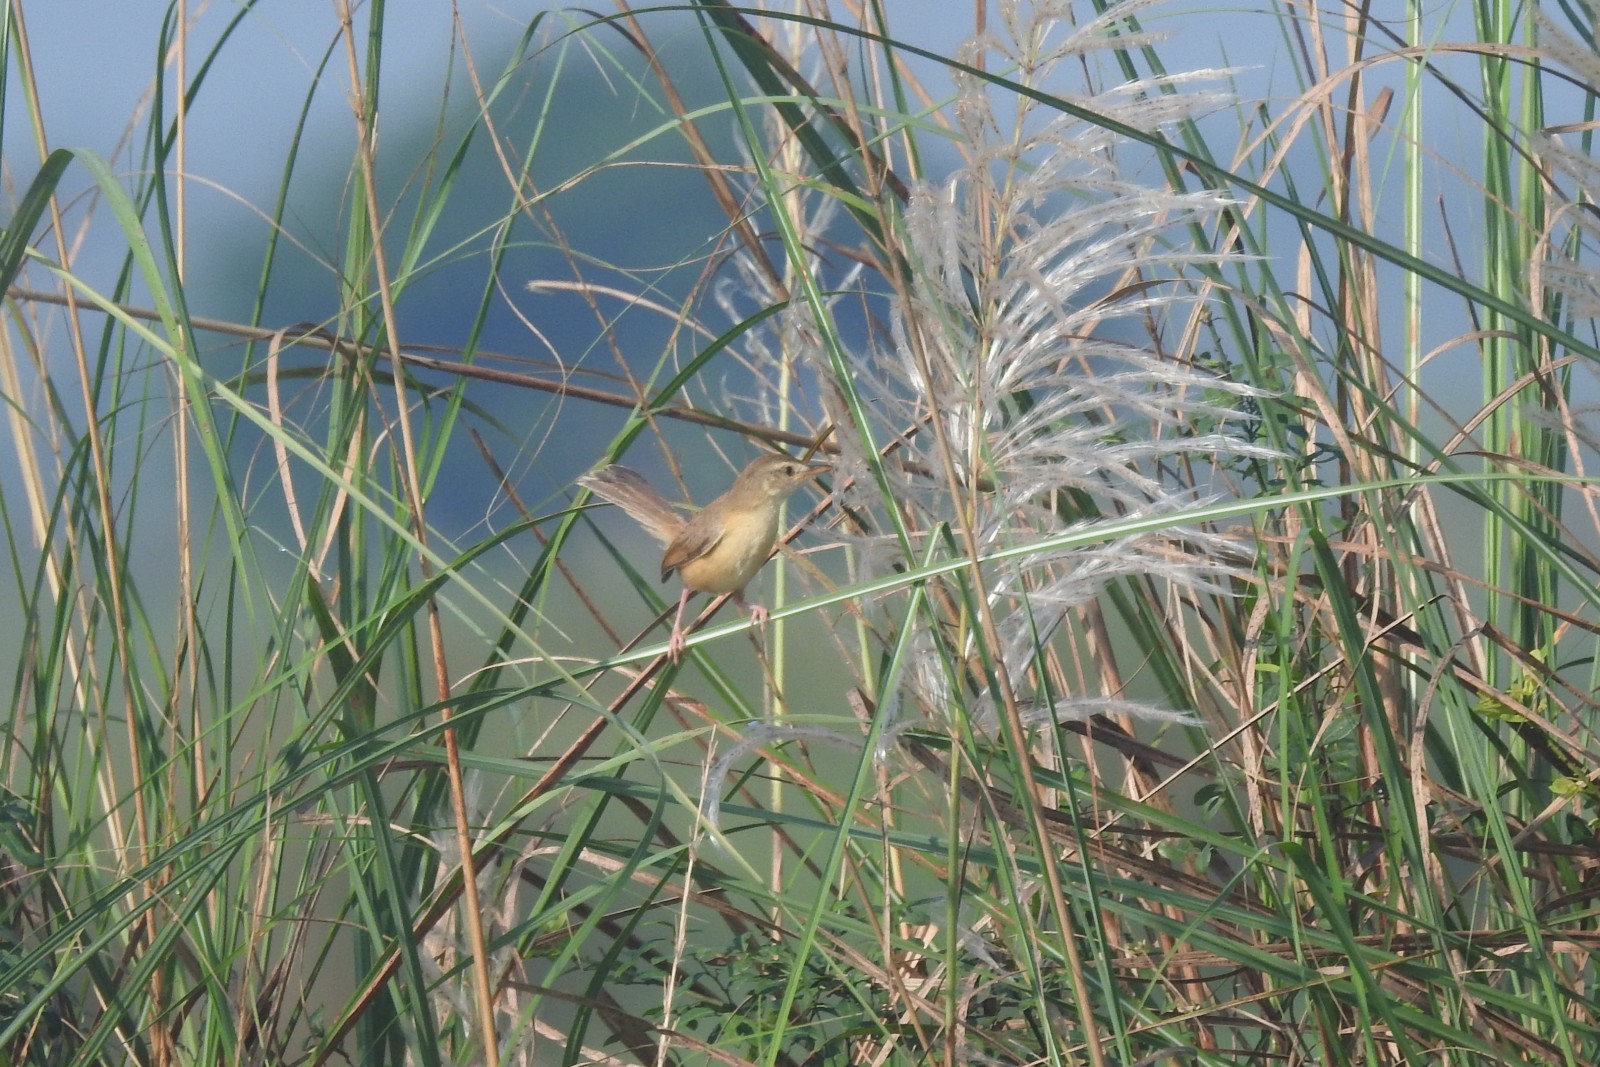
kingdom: Animalia
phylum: Chordata
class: Aves
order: Passeriformes
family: Cisticolidae
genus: Prinia
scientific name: Prinia inornata
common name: Plain prinia
